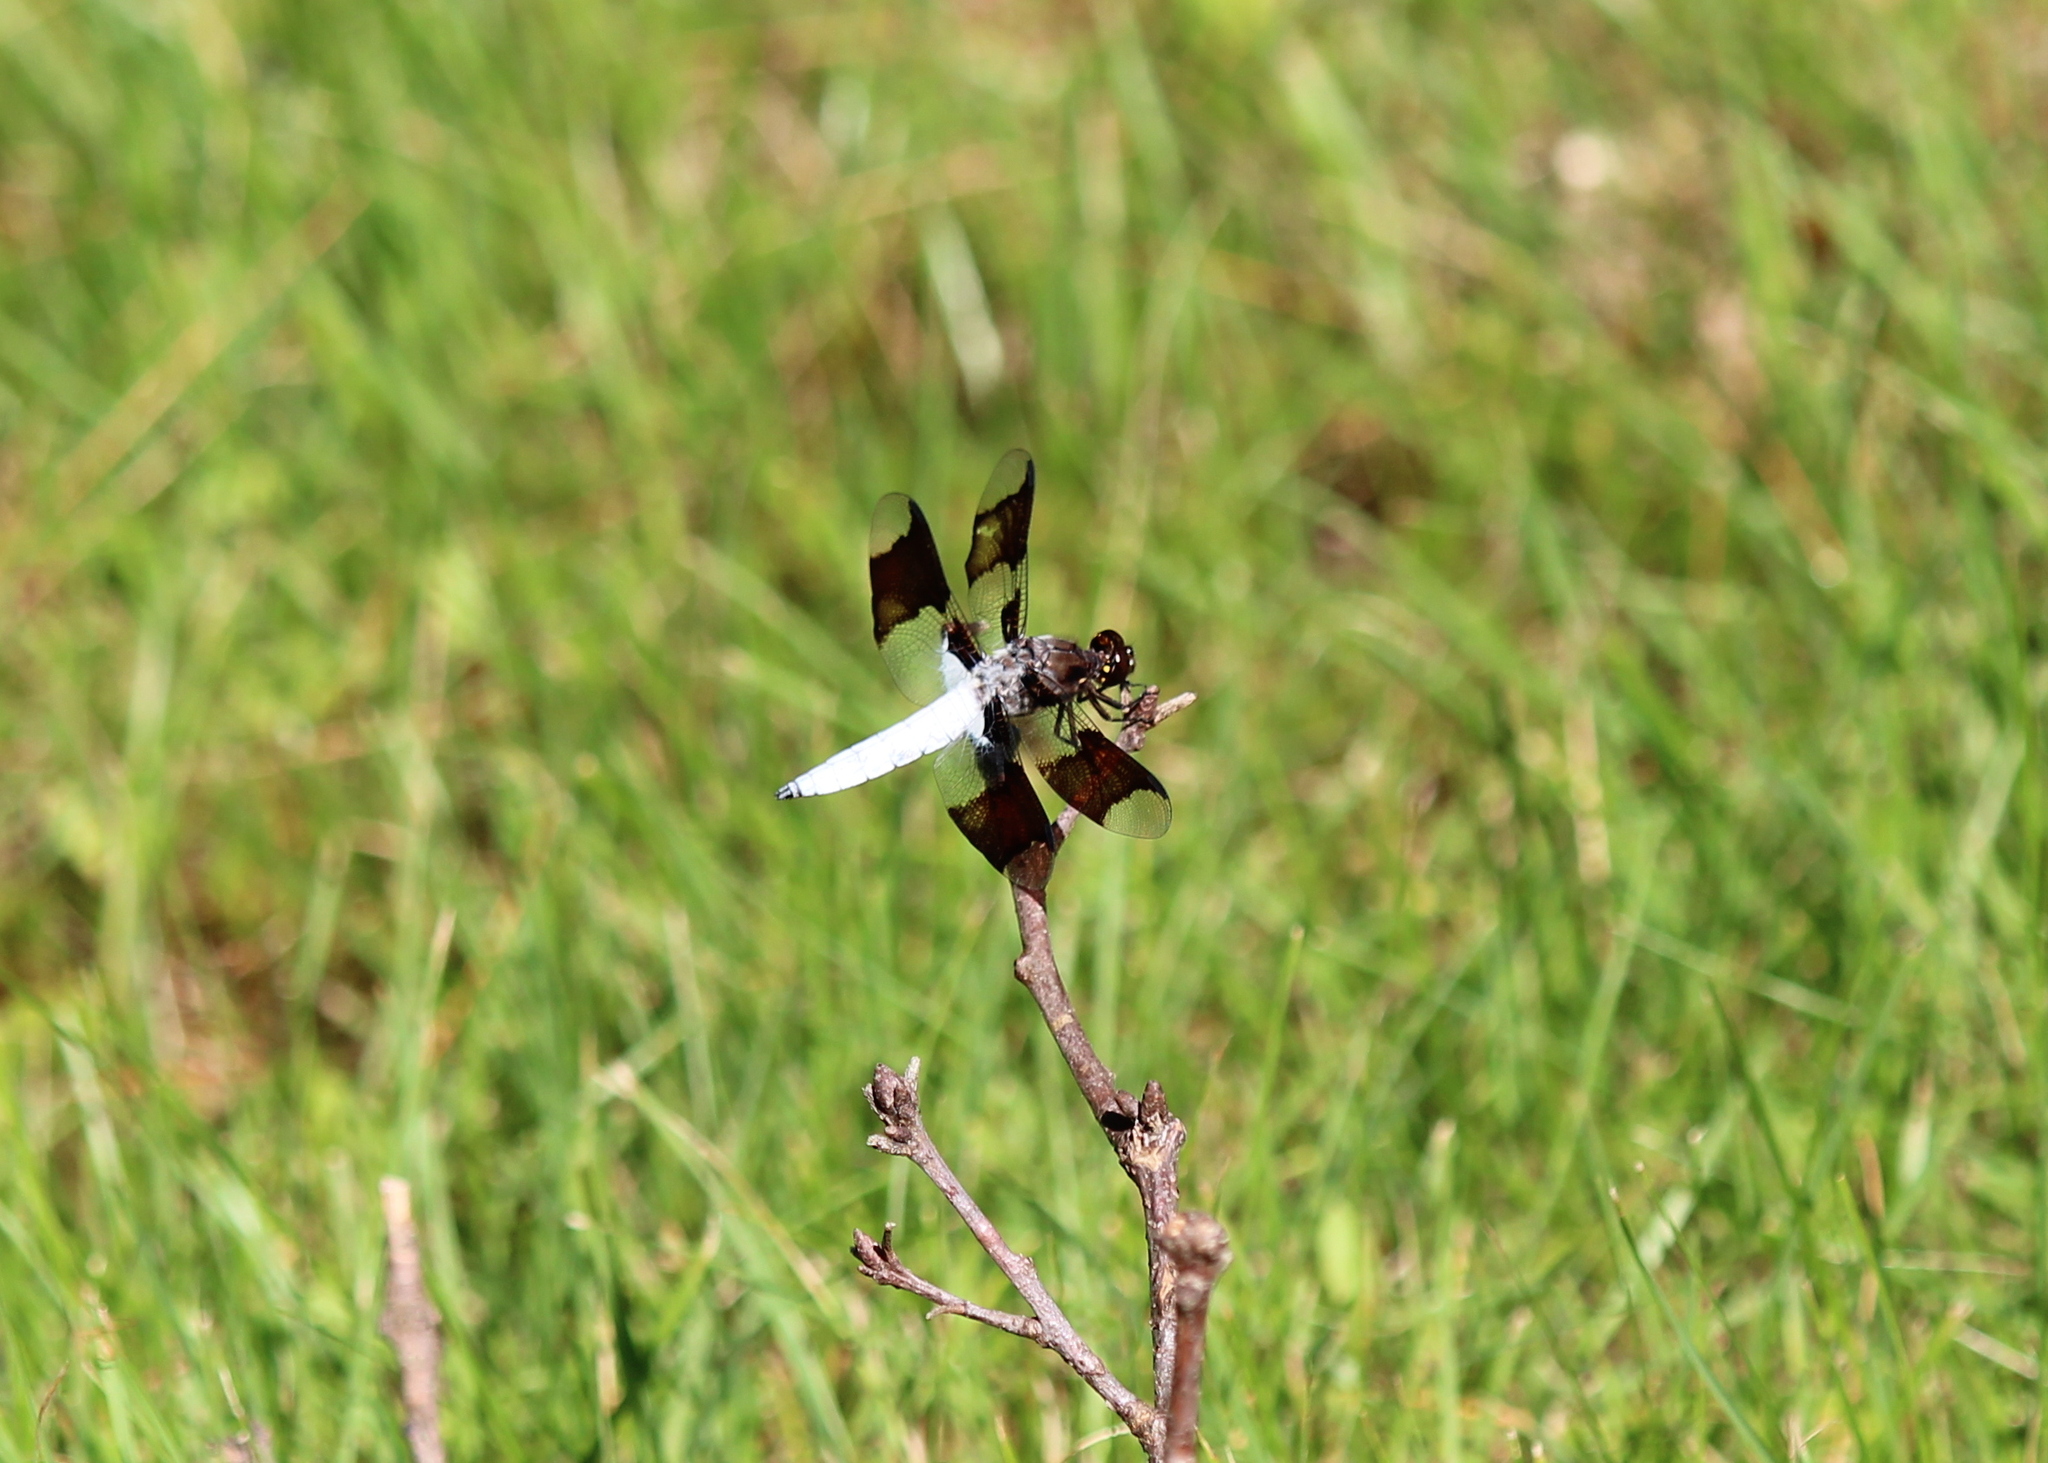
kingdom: Animalia
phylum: Arthropoda
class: Insecta
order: Odonata
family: Libellulidae
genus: Plathemis
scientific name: Plathemis lydia
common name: Common whitetail
